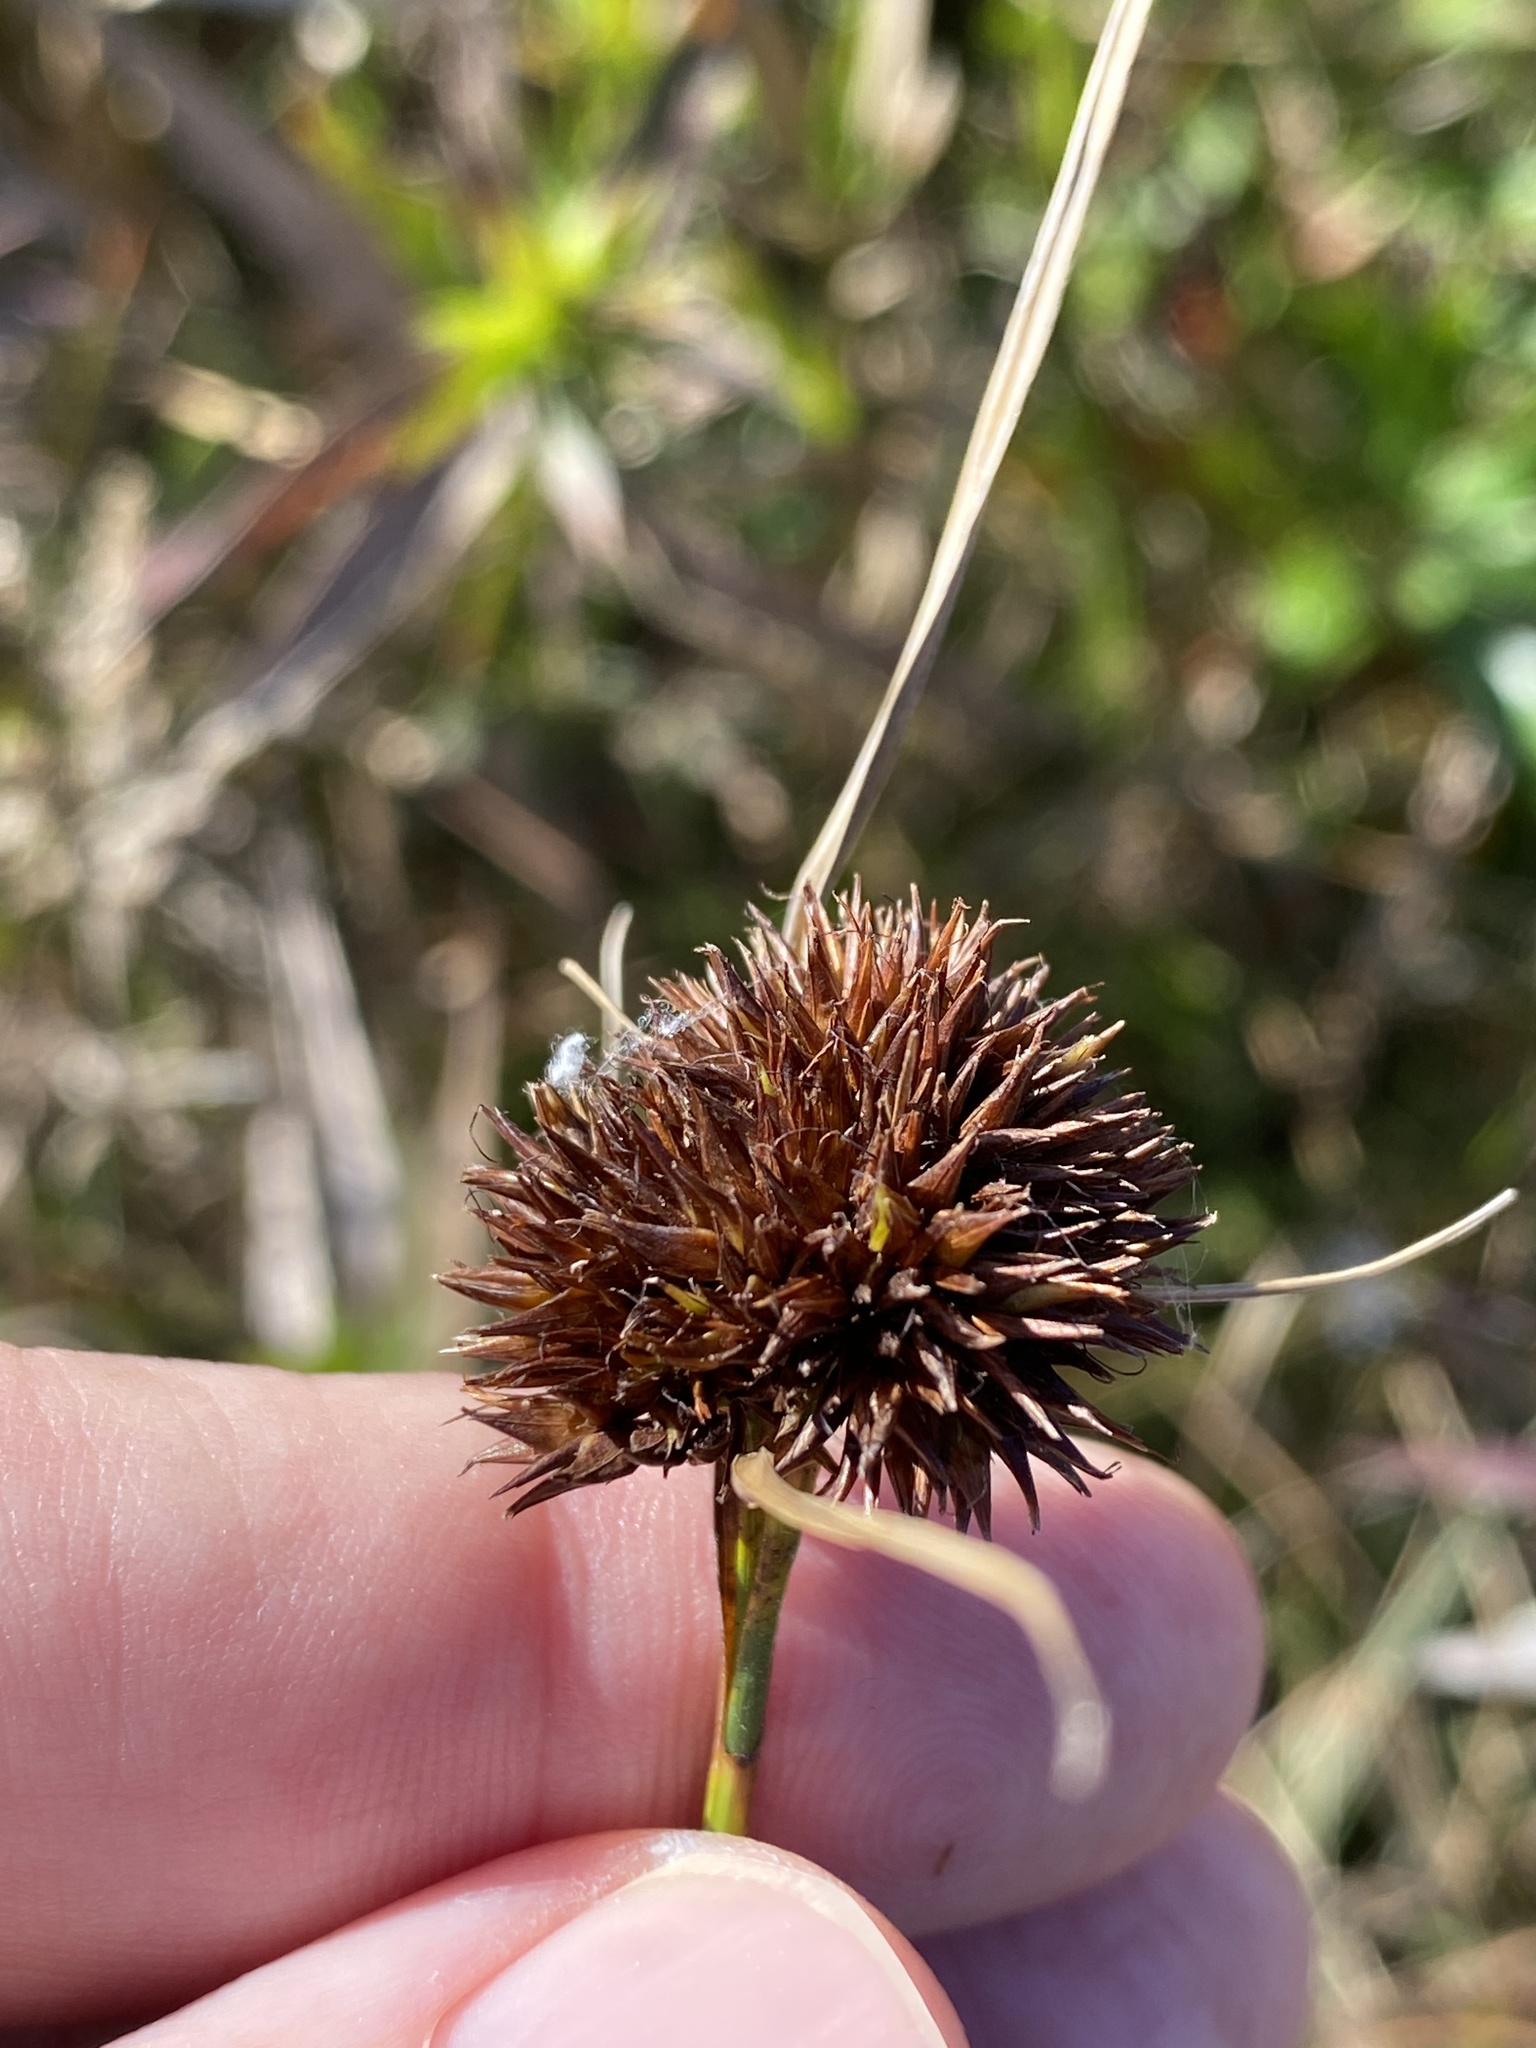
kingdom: Plantae
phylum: Tracheophyta
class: Liliopsida
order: Poales
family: Cyperaceae
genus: Rhynchospora
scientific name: Rhynchospora cephalantha
